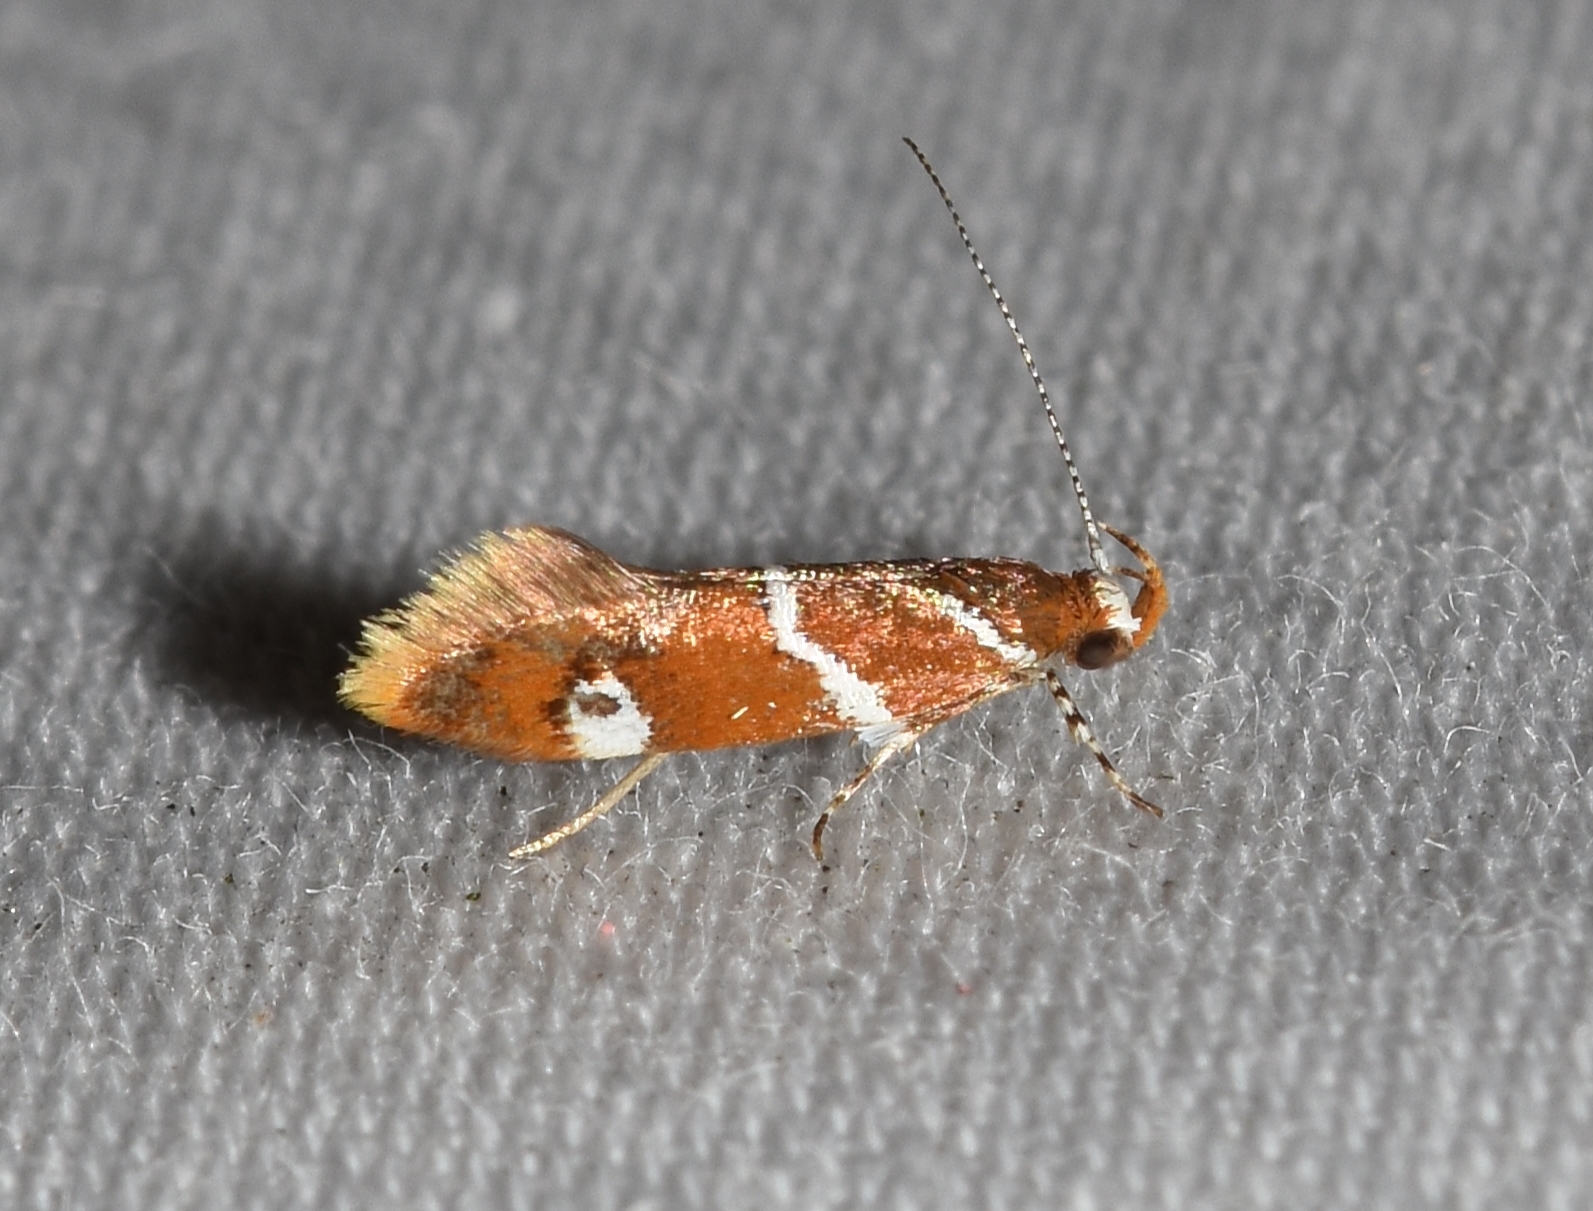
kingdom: Animalia
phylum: Arthropoda
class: Insecta
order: Lepidoptera
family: Oecophoridae
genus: Promalactis
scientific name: Promalactis suzukiella
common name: Moth
